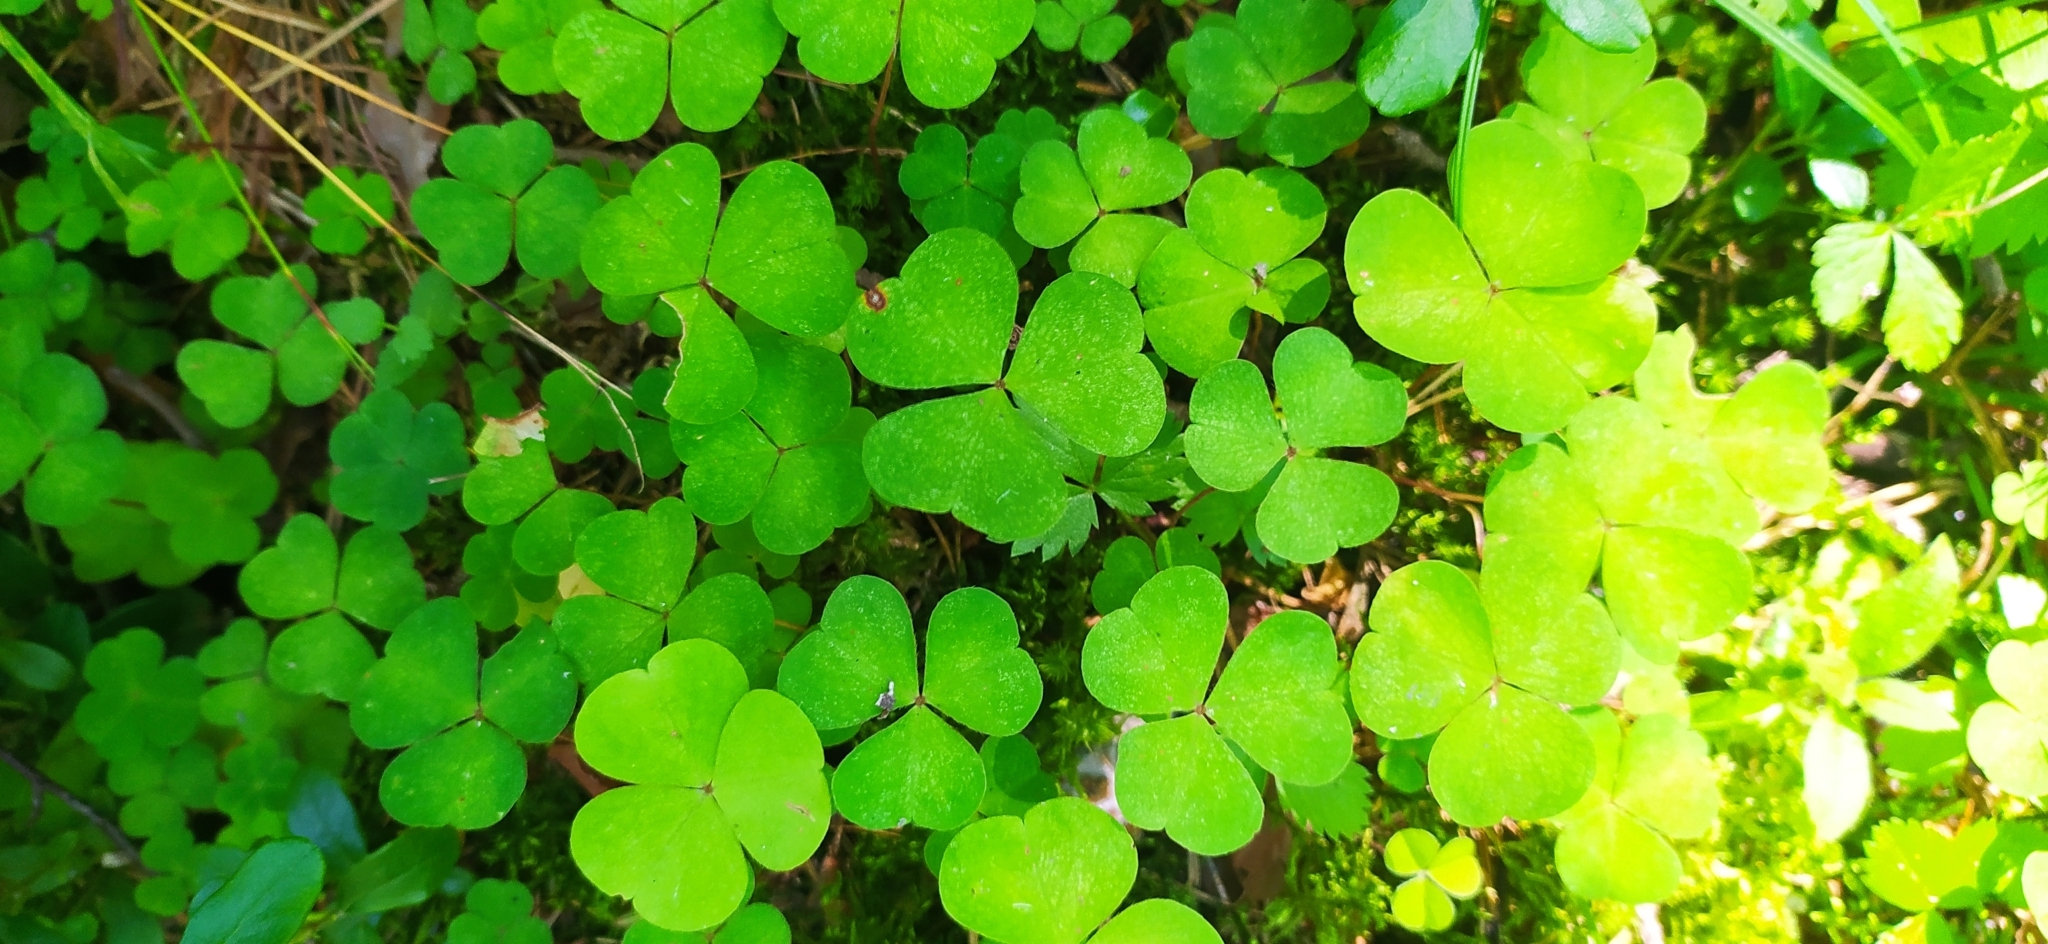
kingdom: Plantae
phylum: Tracheophyta
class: Magnoliopsida
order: Oxalidales
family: Oxalidaceae
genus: Oxalis
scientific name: Oxalis acetosella
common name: Wood-sorrel
